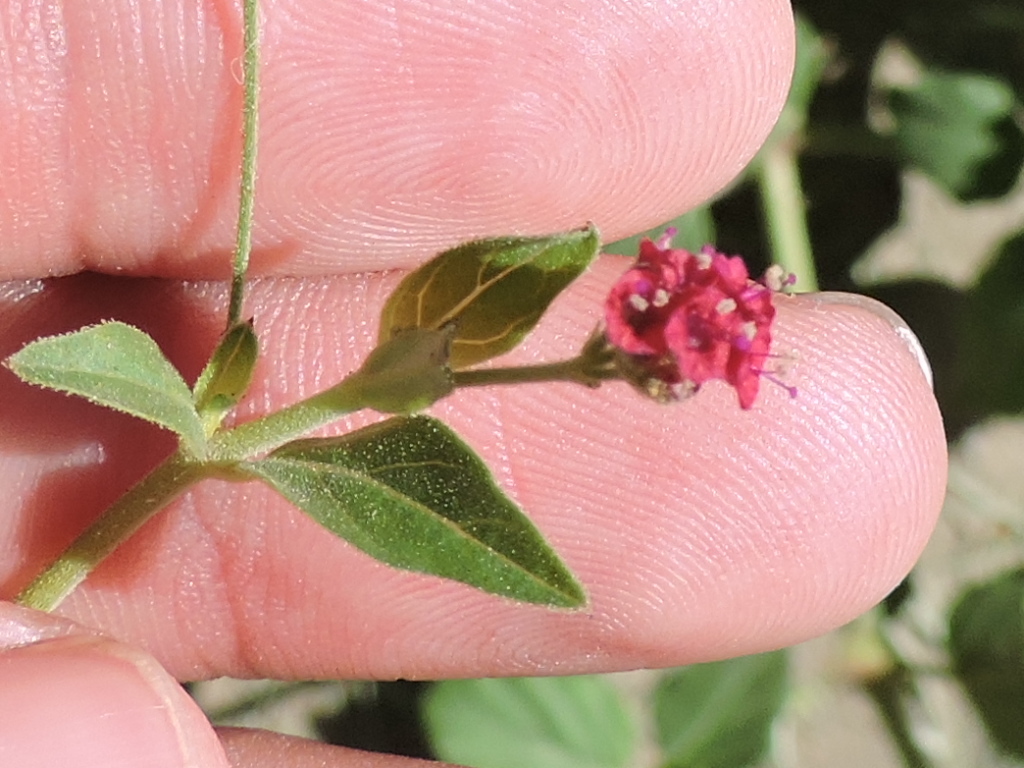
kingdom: Plantae
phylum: Tracheophyta
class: Magnoliopsida
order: Caryophyllales
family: Nyctaginaceae
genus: Boerhavia
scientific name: Boerhavia coccinea
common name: Scarlet spiderling
